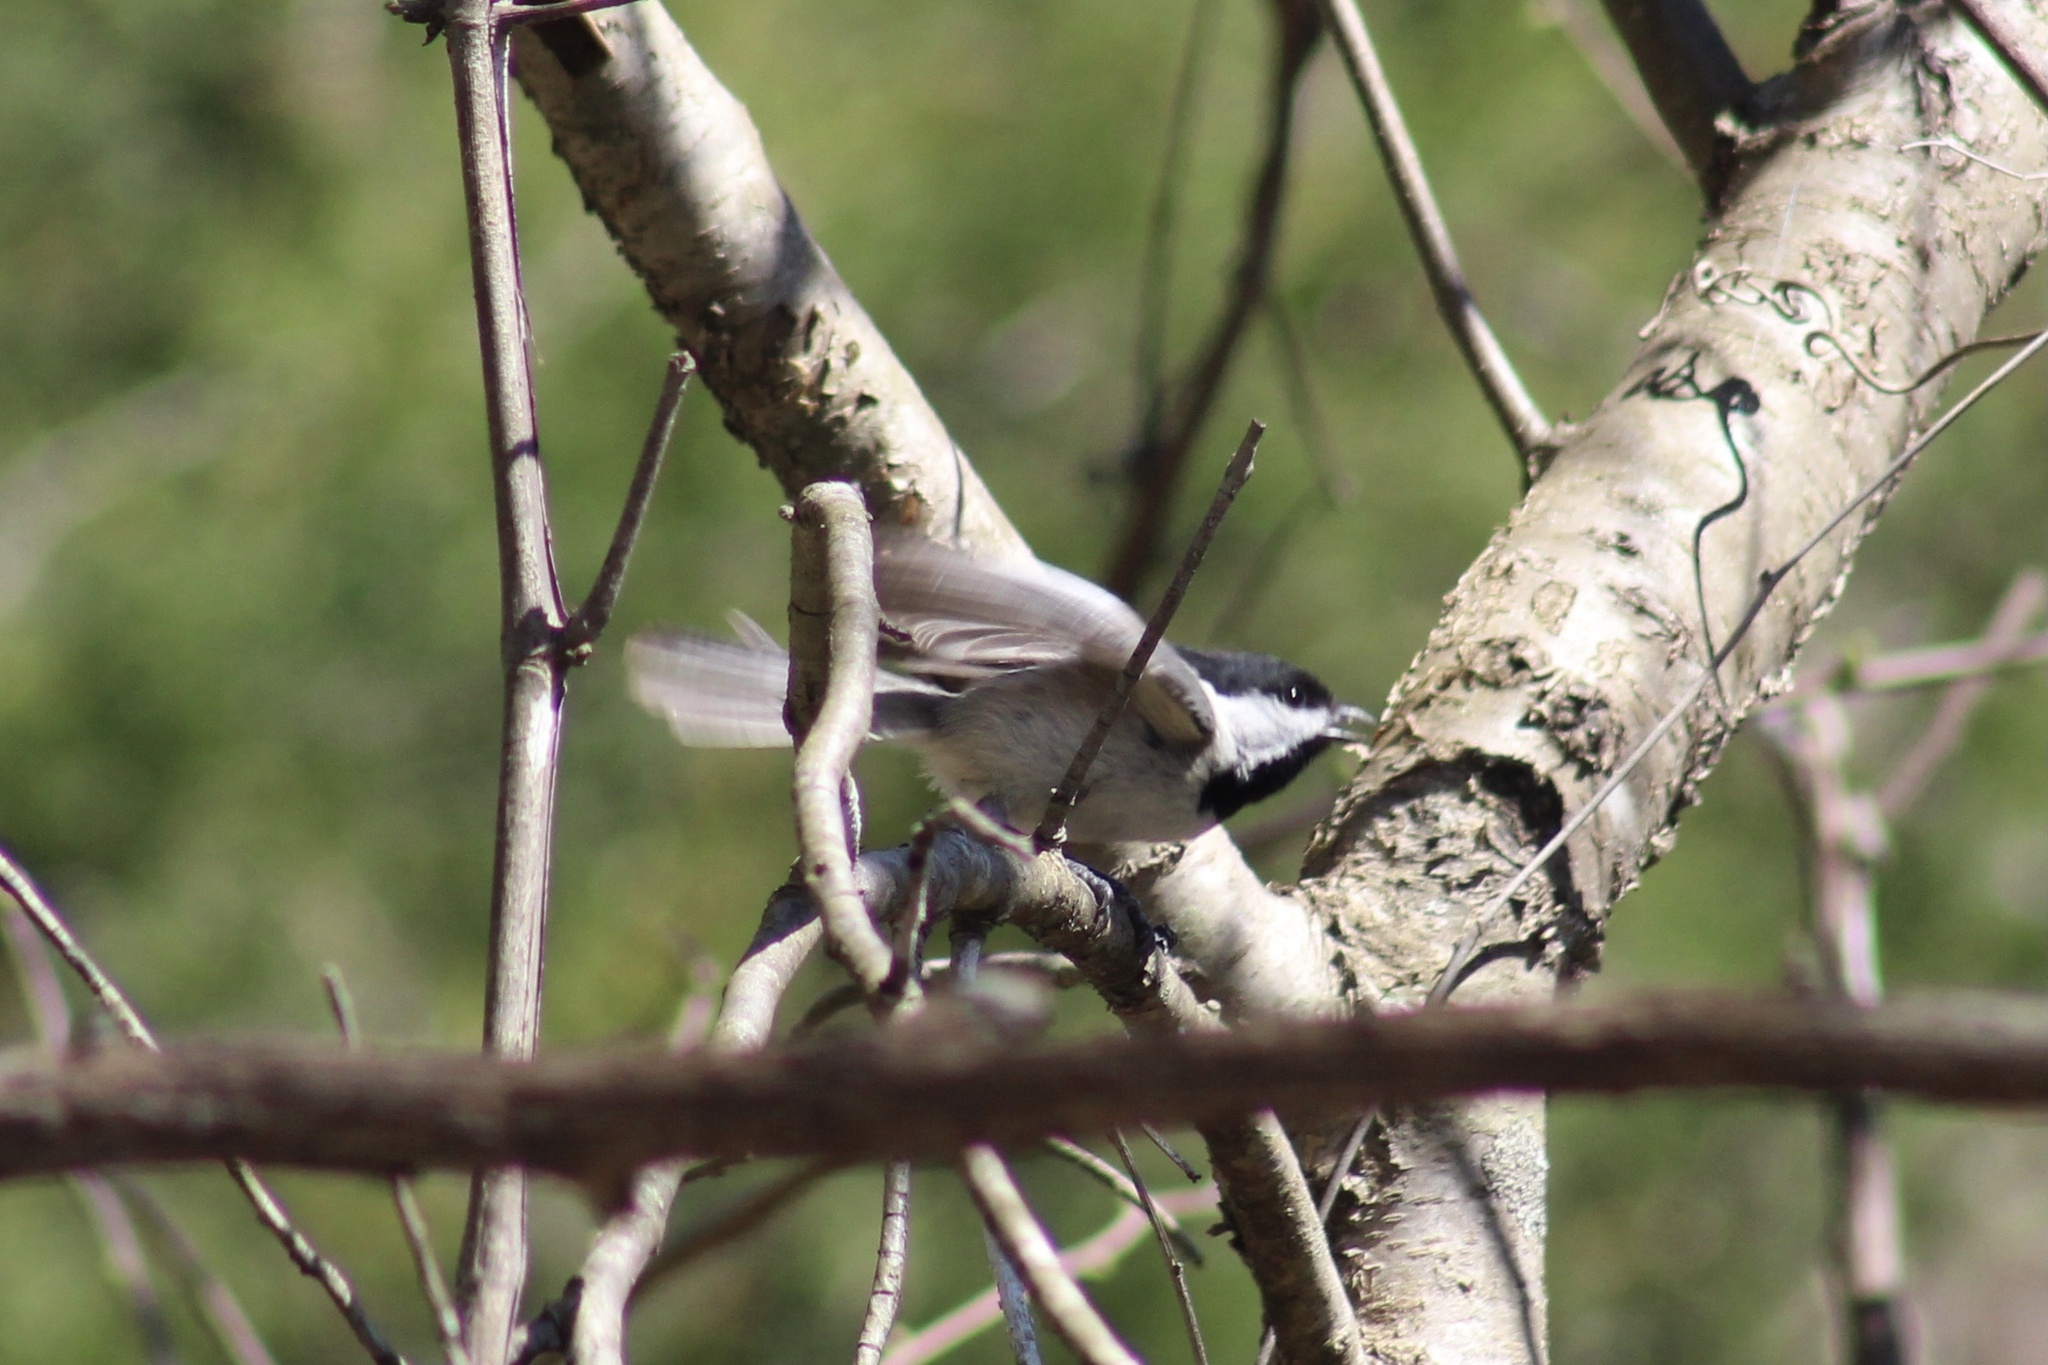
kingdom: Animalia
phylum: Chordata
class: Aves
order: Passeriformes
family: Paridae
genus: Poecile
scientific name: Poecile carolinensis
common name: Carolina chickadee
